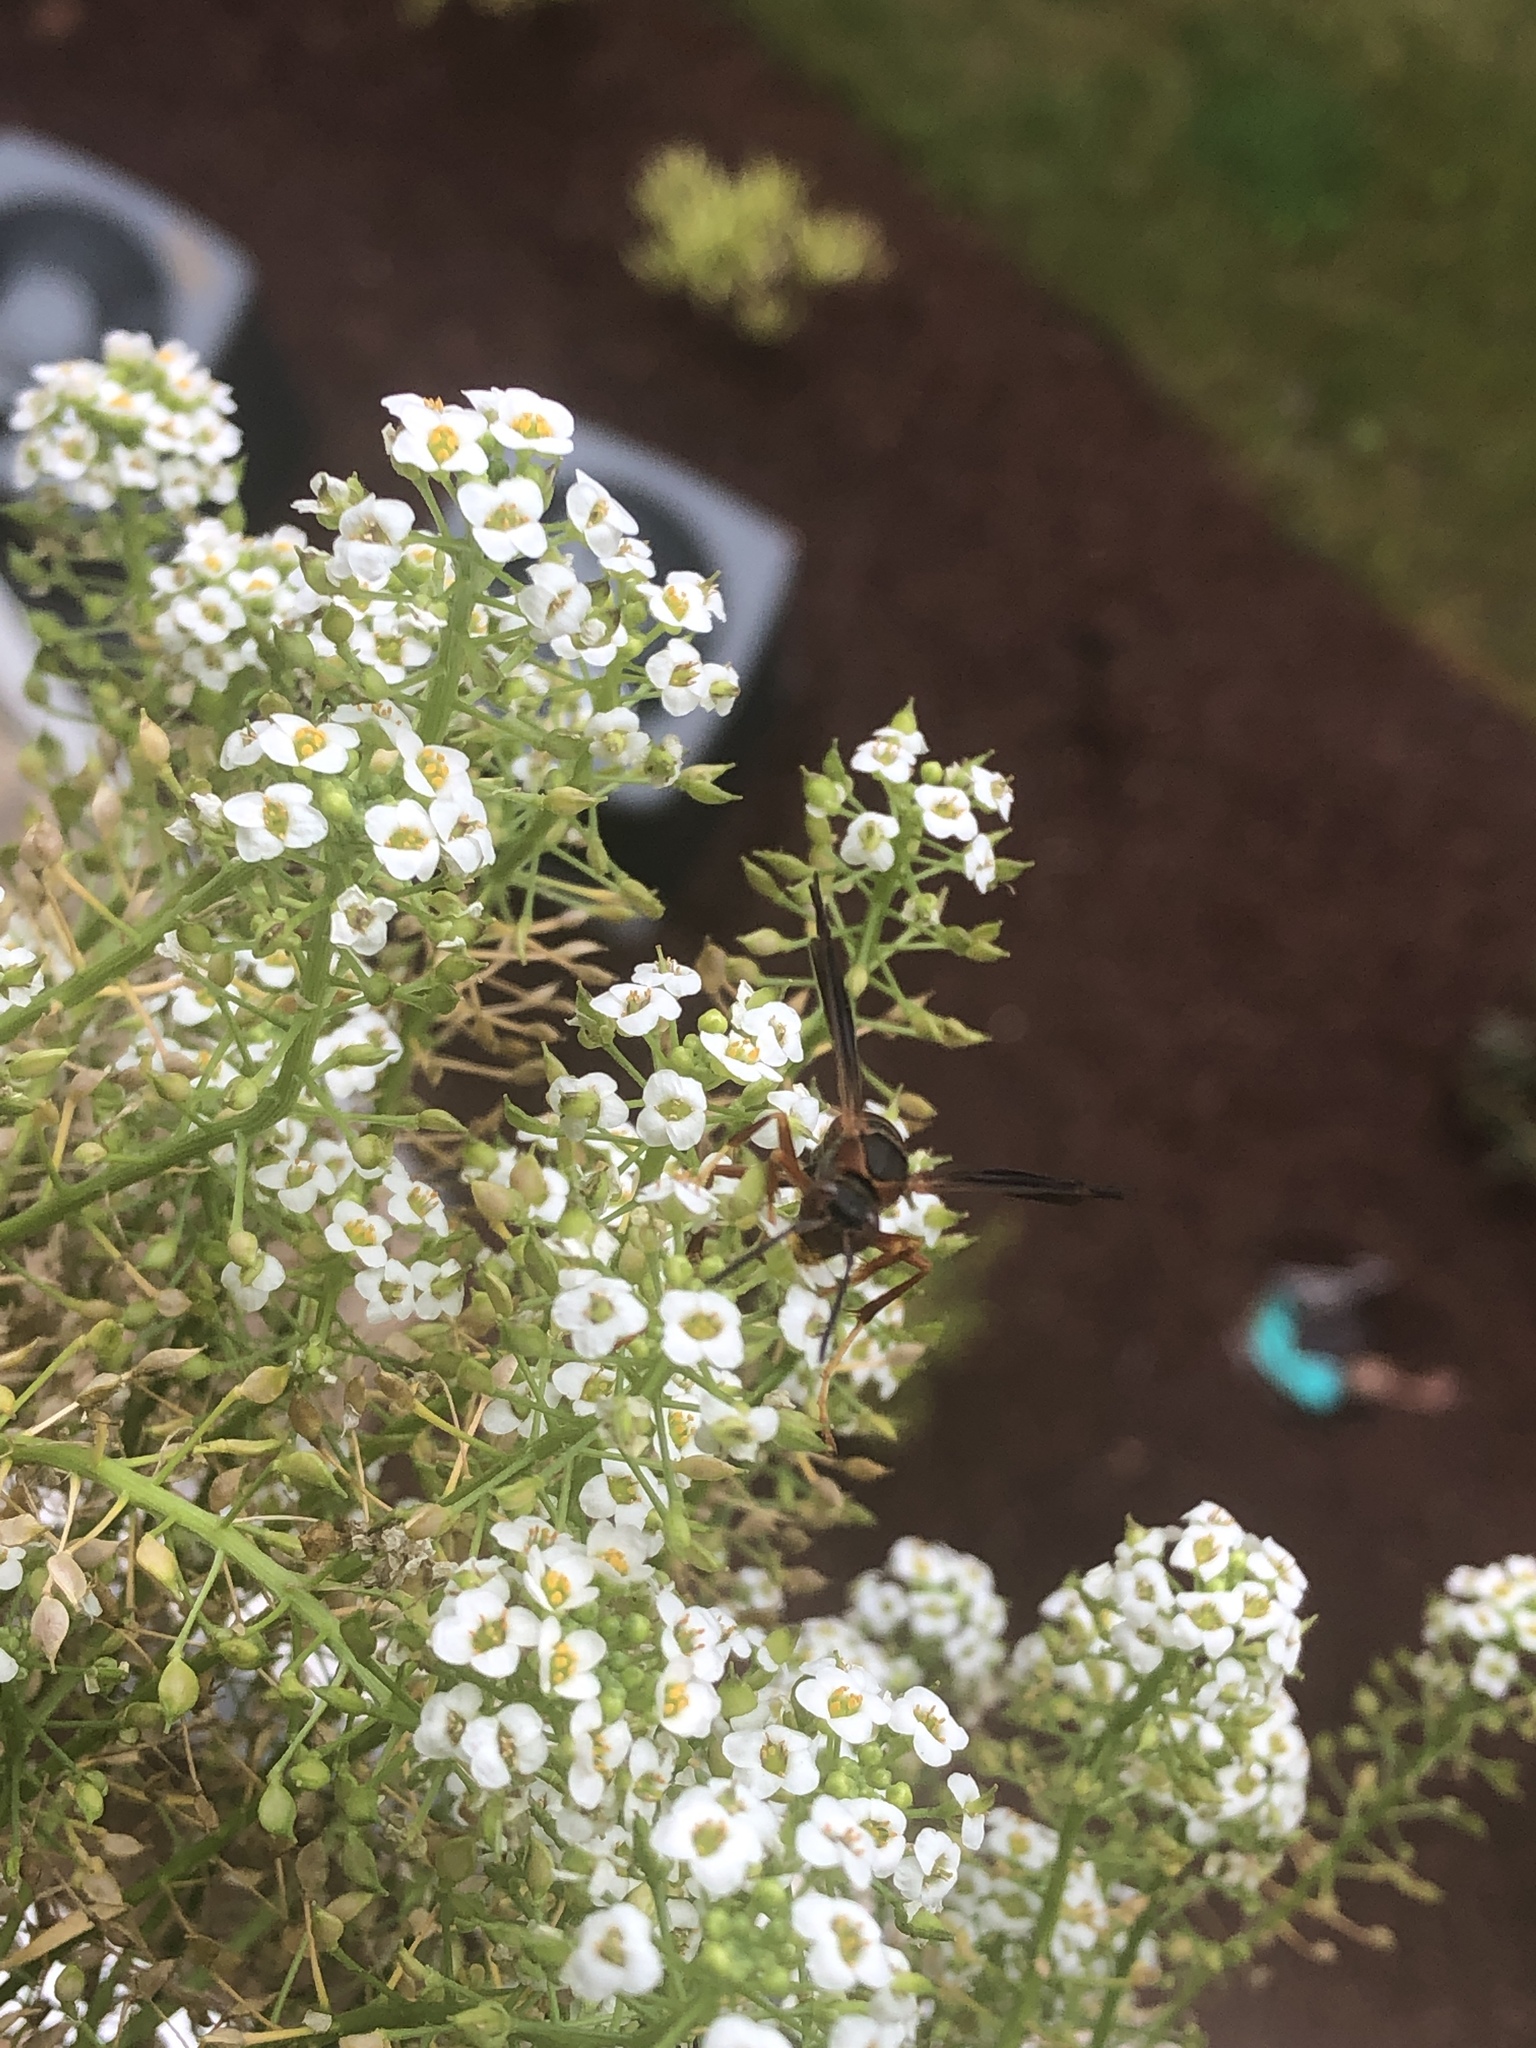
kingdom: Animalia
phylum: Arthropoda
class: Insecta
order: Hymenoptera
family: Eumenidae
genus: Polistes
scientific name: Polistes fuscatus
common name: Dark paper wasp
